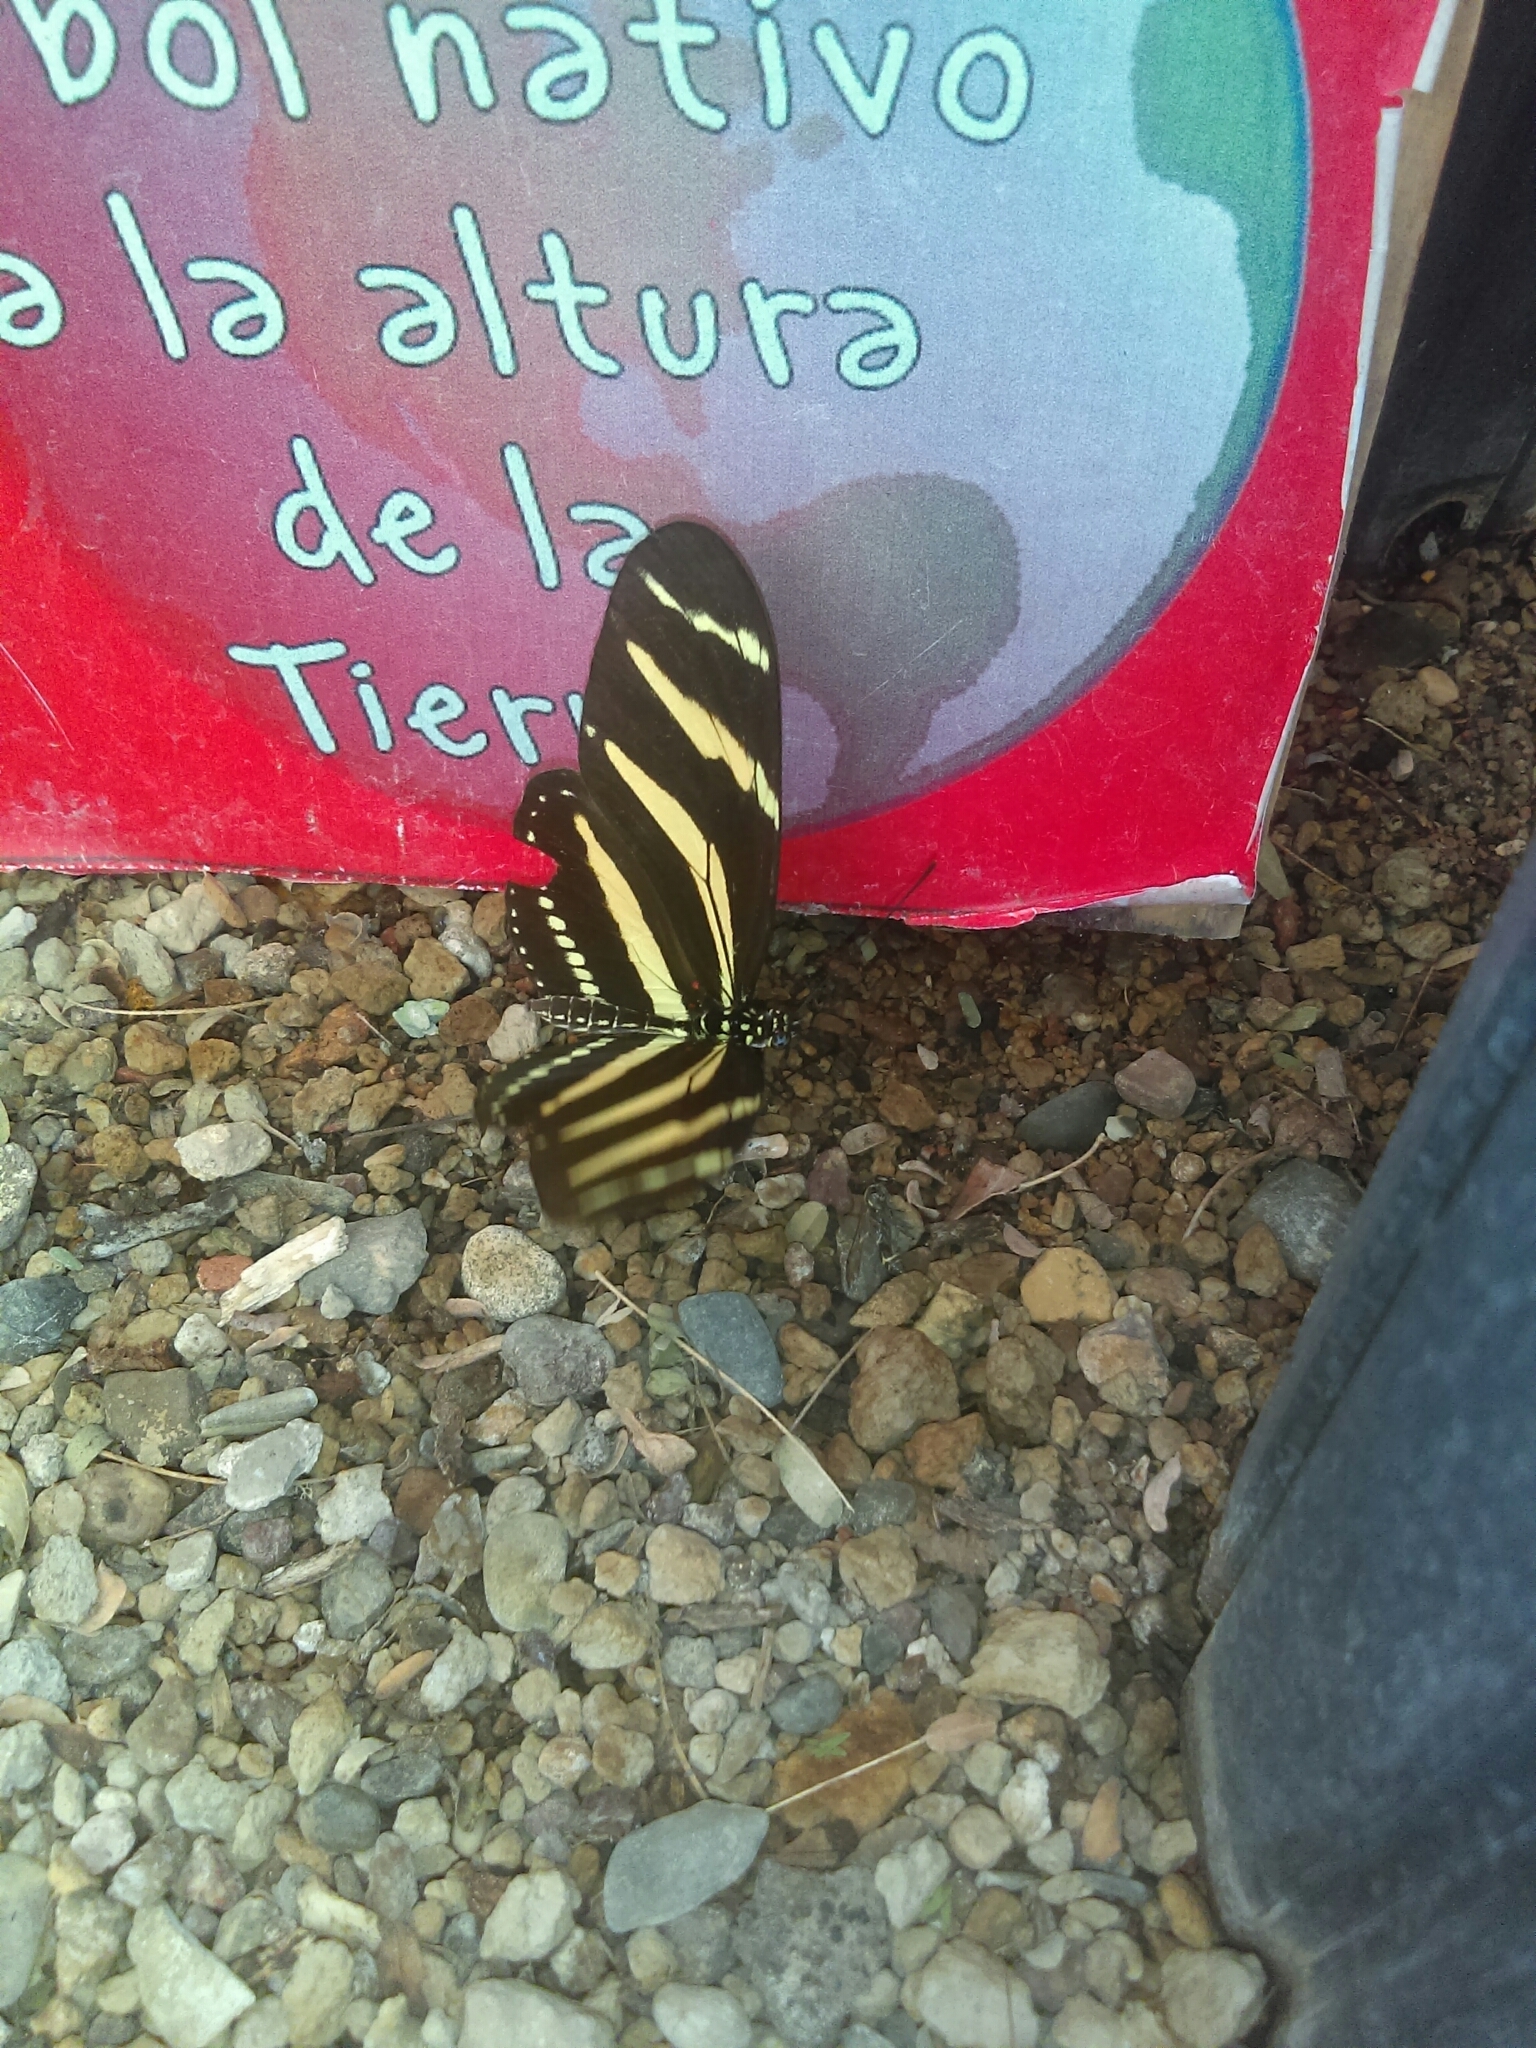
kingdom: Animalia
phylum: Arthropoda
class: Insecta
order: Lepidoptera
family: Nymphalidae
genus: Heliconius
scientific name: Heliconius charithonia
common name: Zebra long wing
